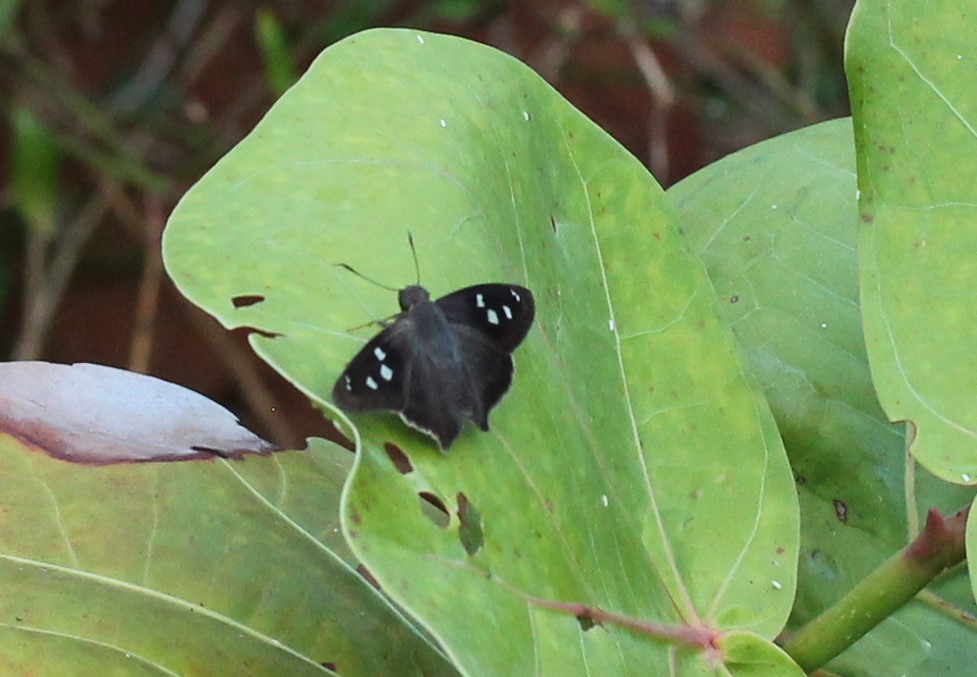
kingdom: Animalia
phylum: Arthropoda
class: Insecta
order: Lepidoptera
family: Hesperiidae
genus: Polygonus
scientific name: Polygonus leo
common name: Hammoch skipper
